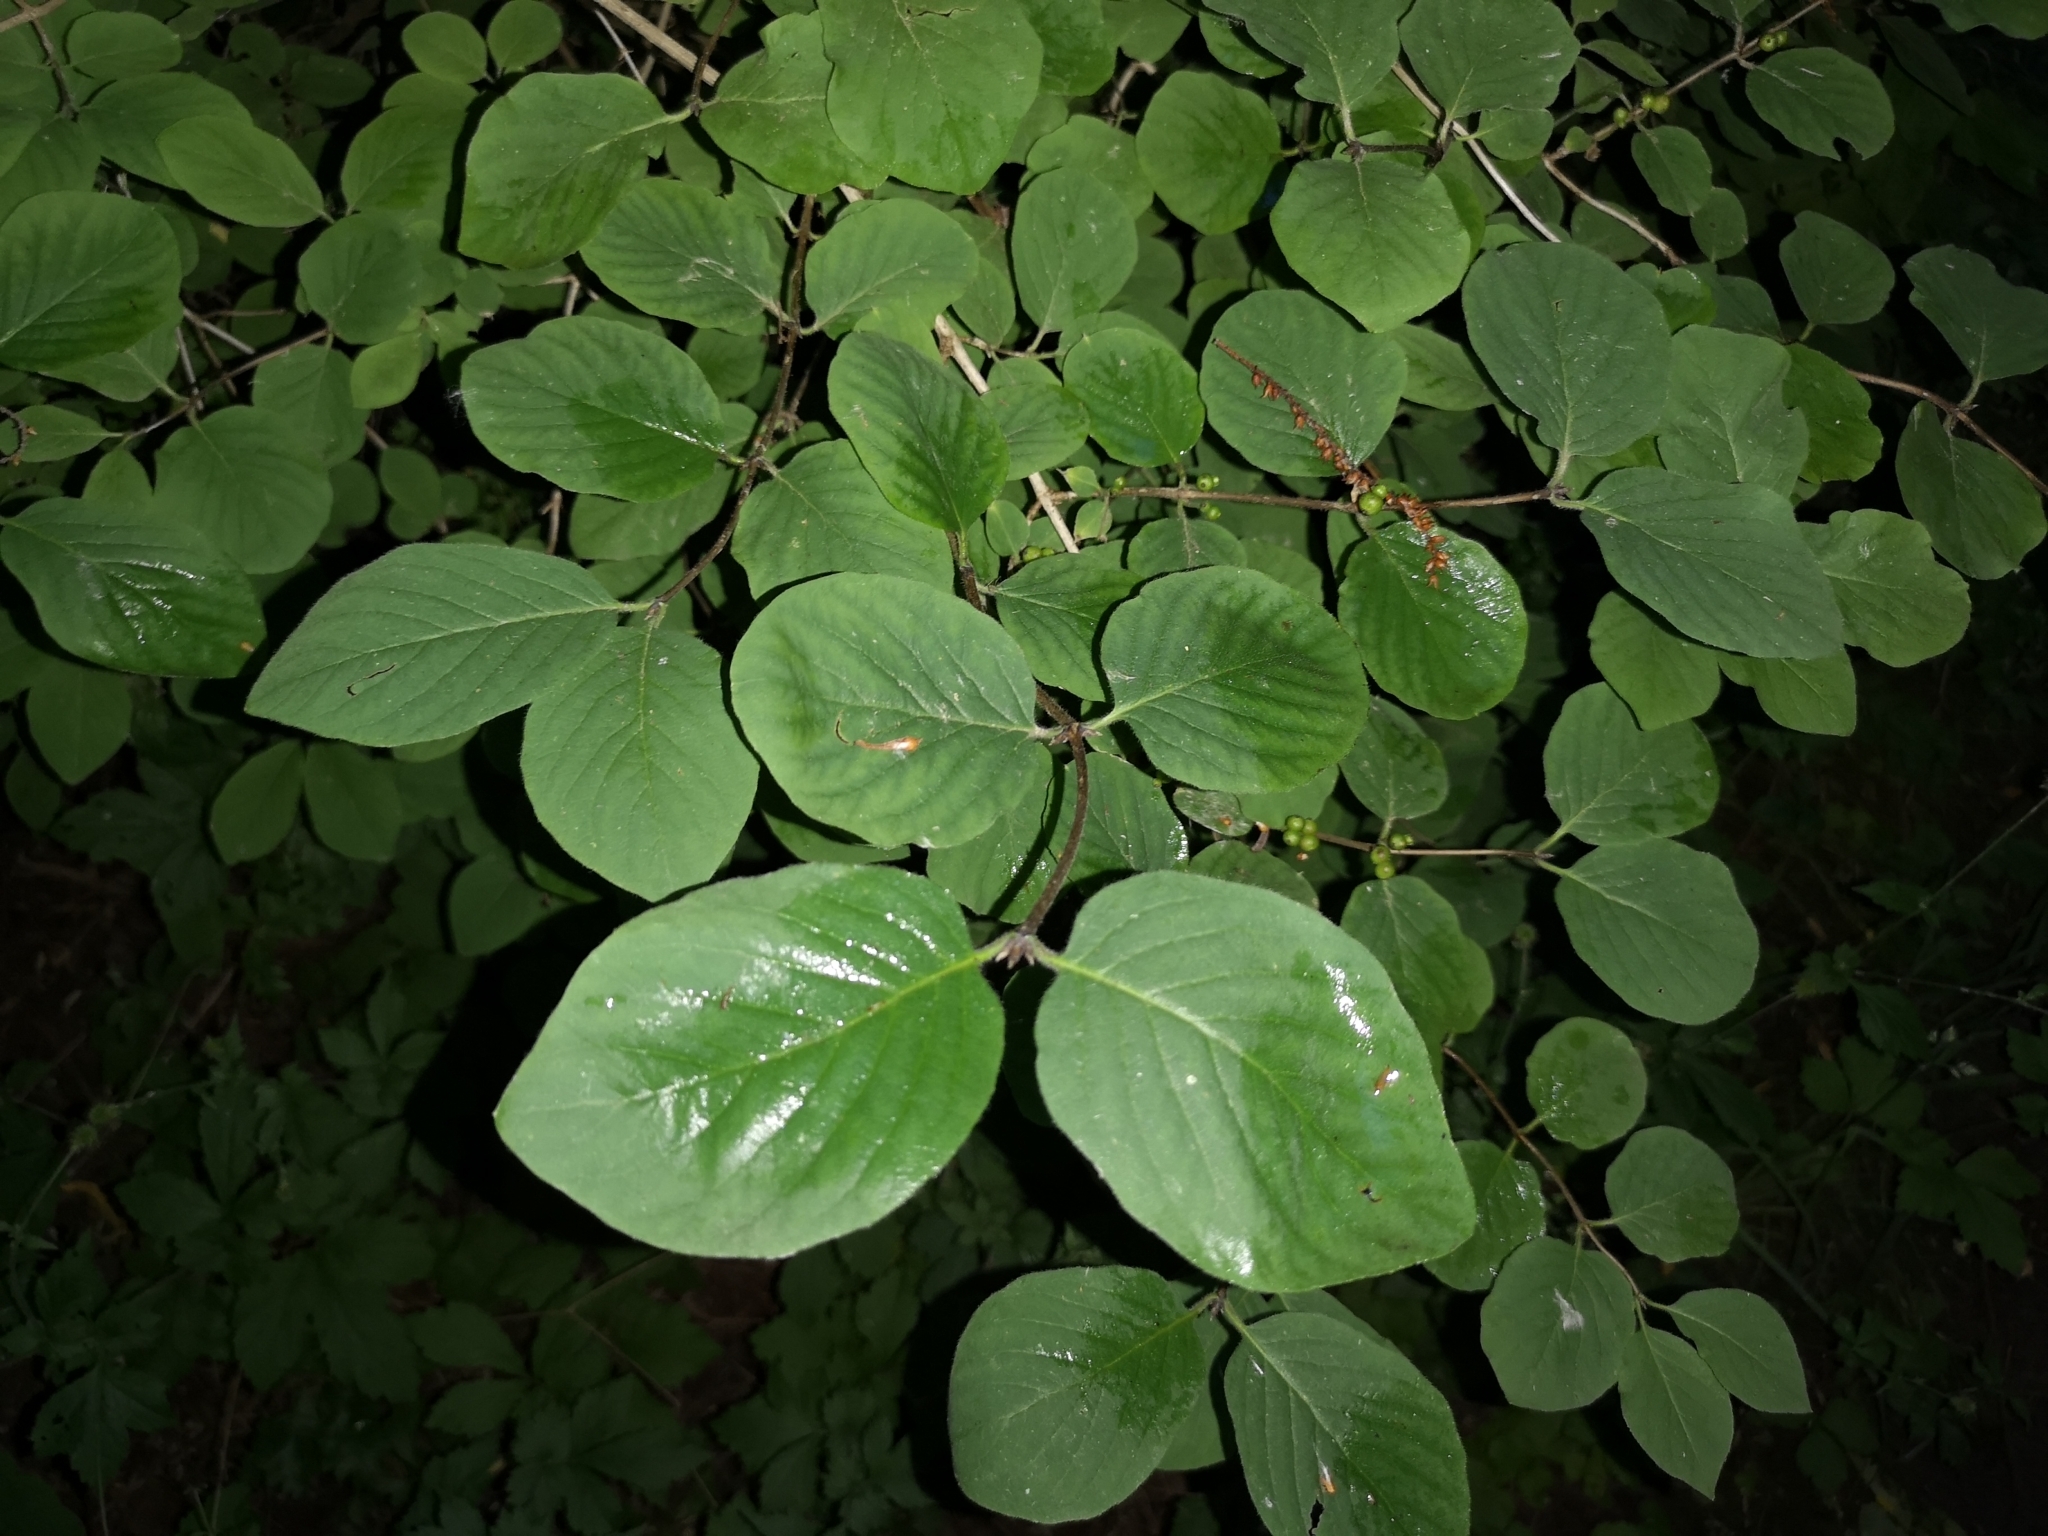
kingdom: Plantae
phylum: Tracheophyta
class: Magnoliopsida
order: Dipsacales
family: Caprifoliaceae
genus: Lonicera
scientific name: Lonicera xylosteum
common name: Fly honeysuckle
